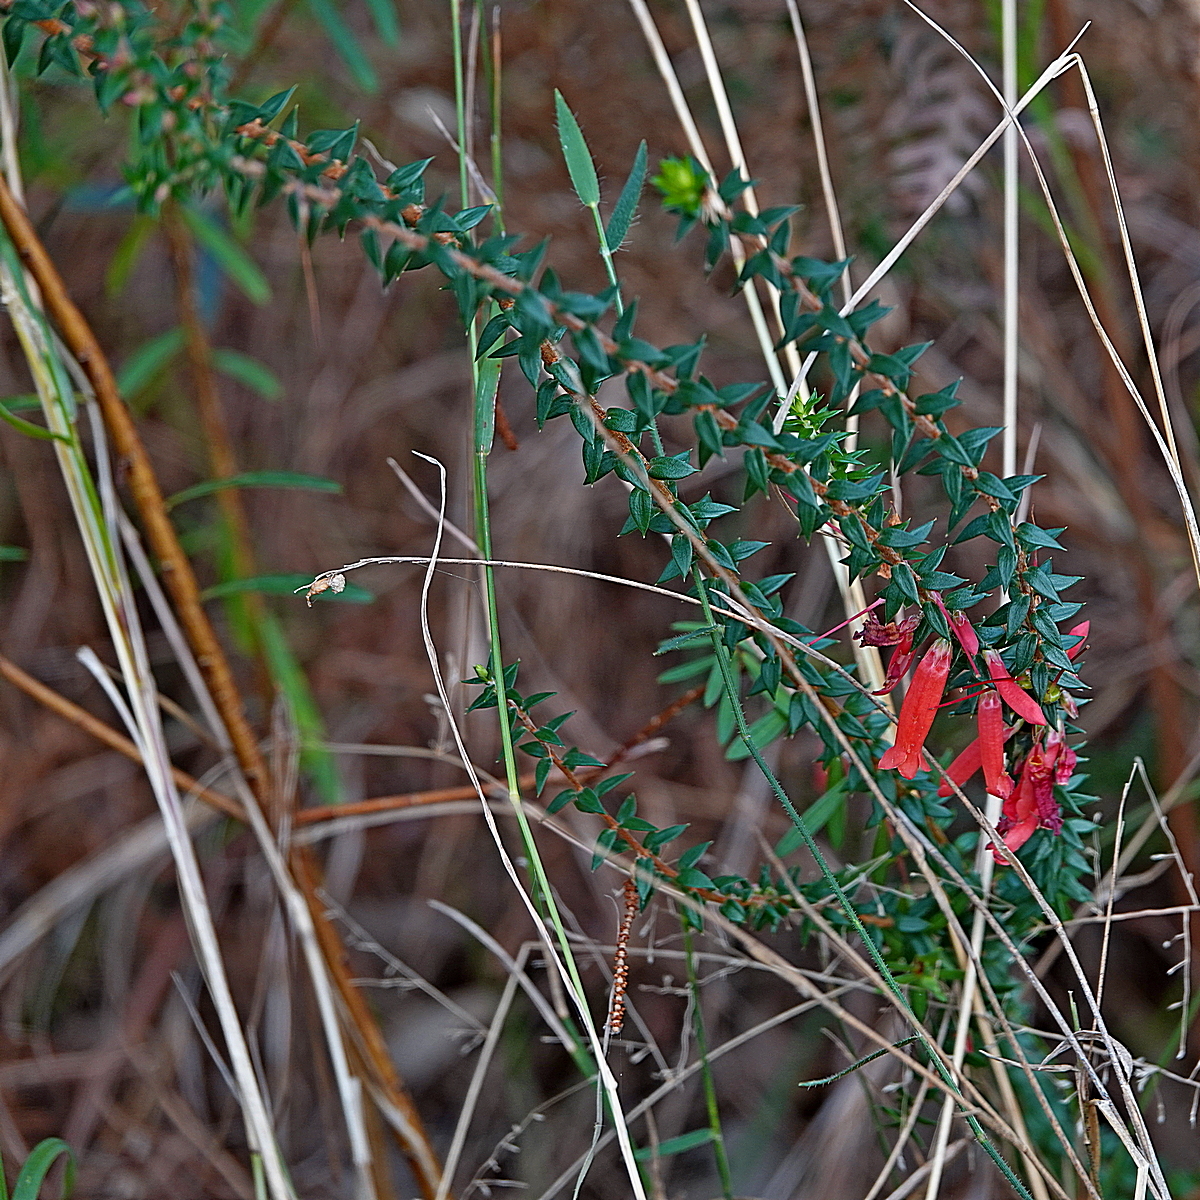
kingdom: Plantae
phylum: Tracheophyta
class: Magnoliopsida
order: Ericales
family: Ericaceae
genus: Epacris
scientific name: Epacris impressa
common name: Common-heath
